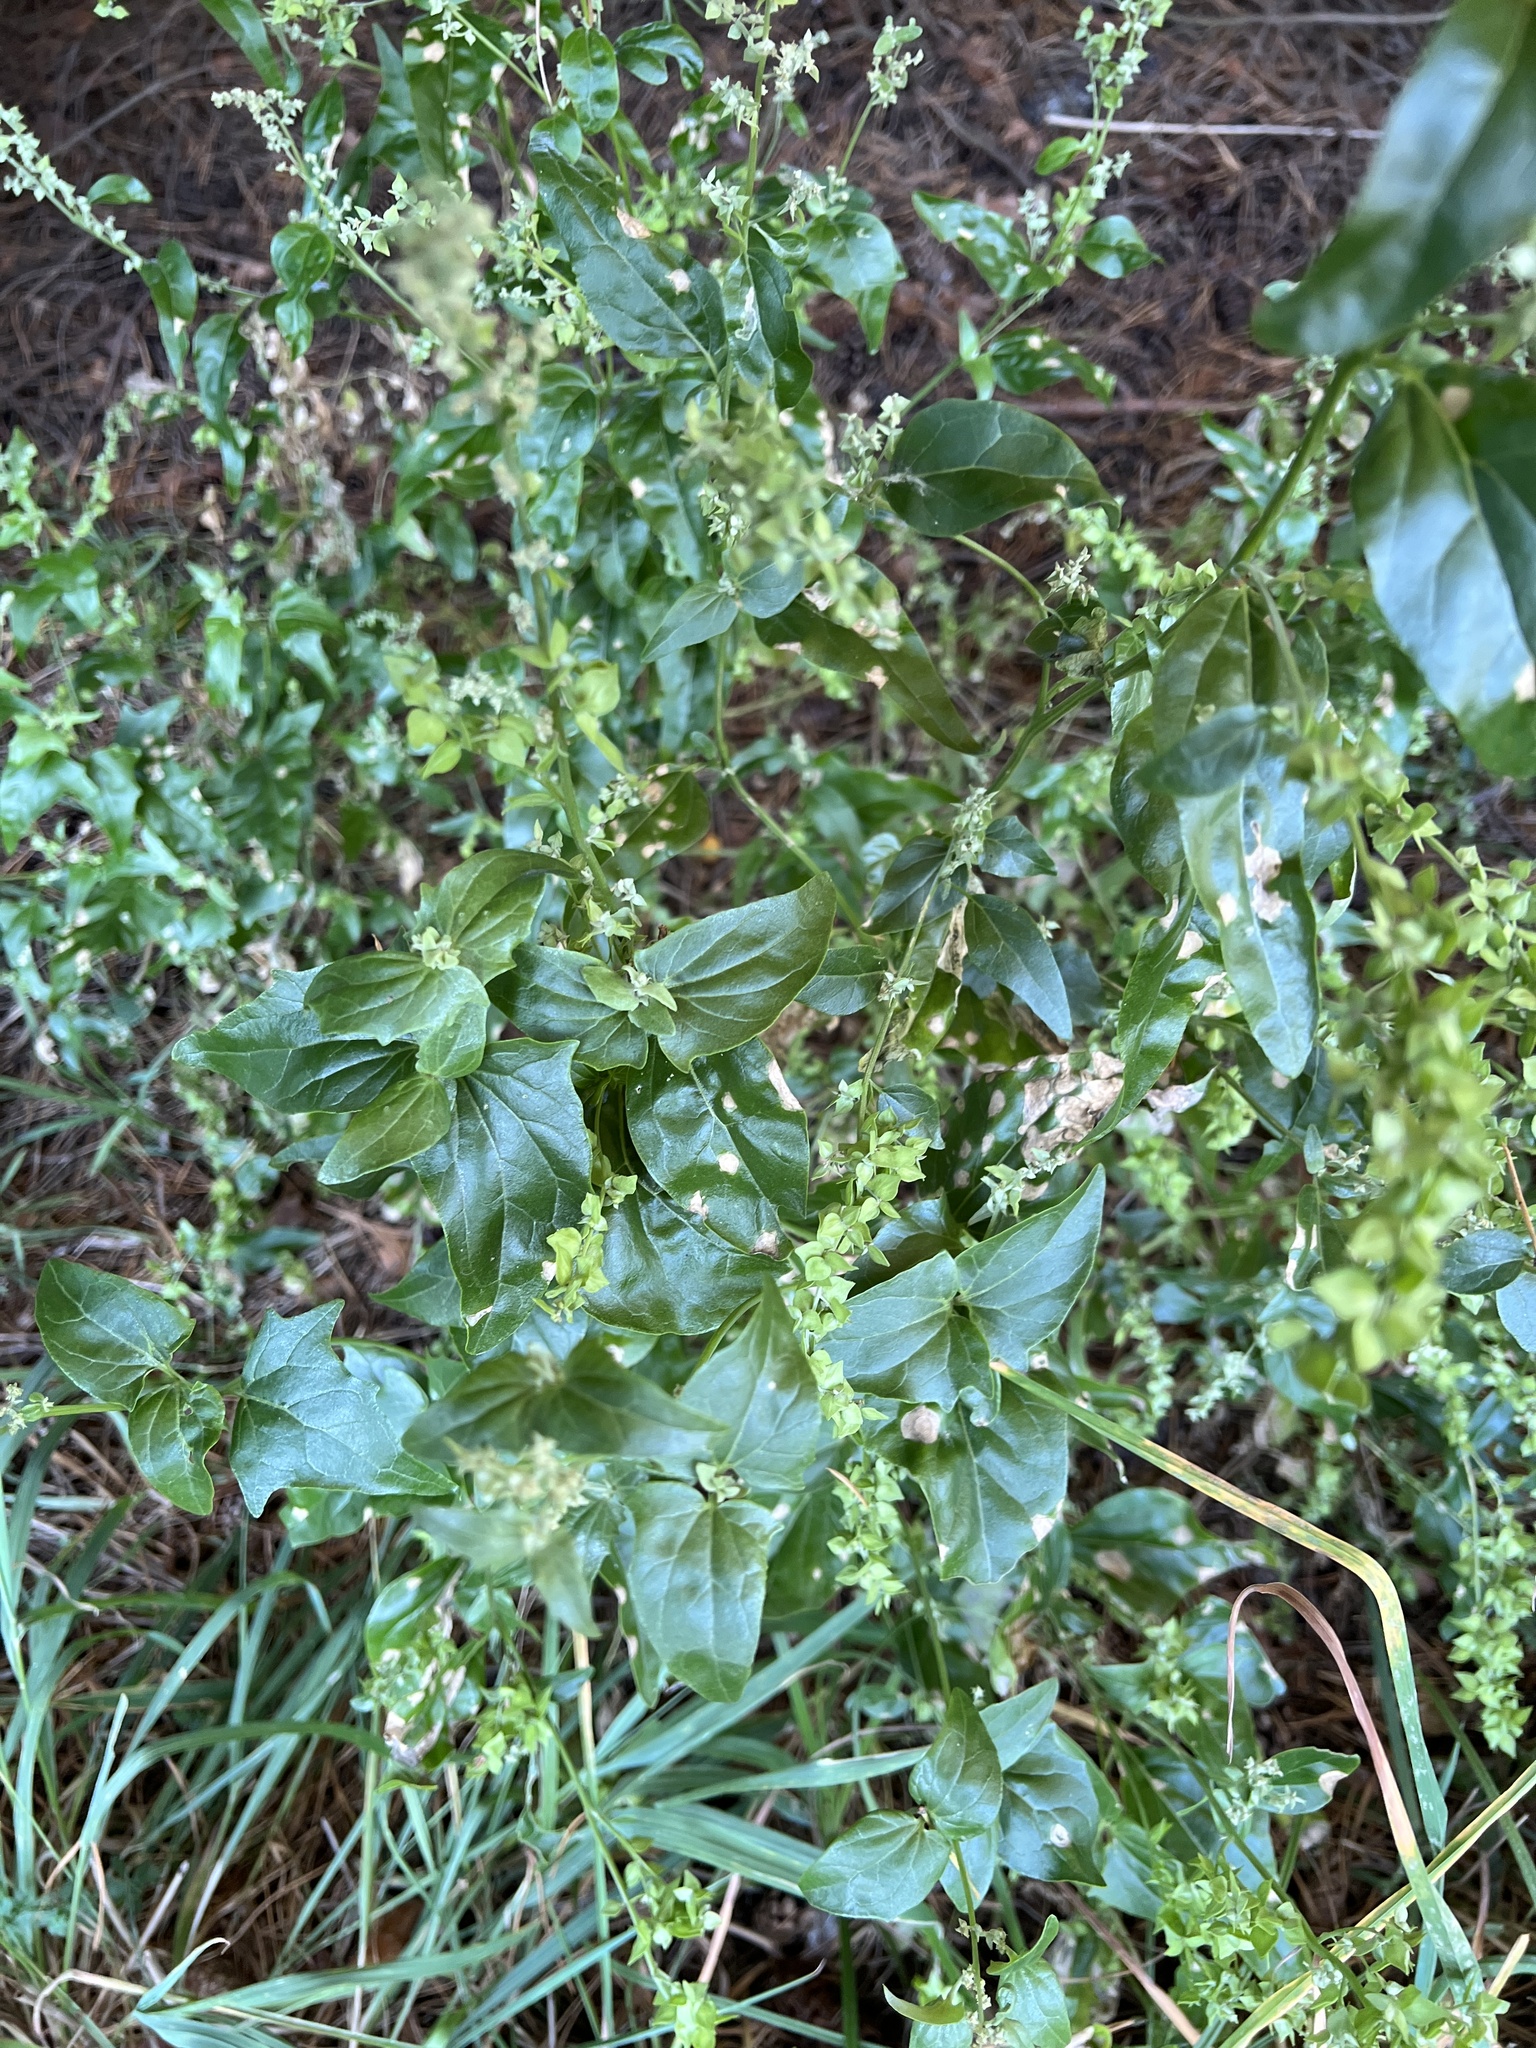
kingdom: Plantae
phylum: Tracheophyta
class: Magnoliopsida
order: Caryophyllales
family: Amaranthaceae
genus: Atriplex
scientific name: Atriplex sagittata
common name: Purple orache
